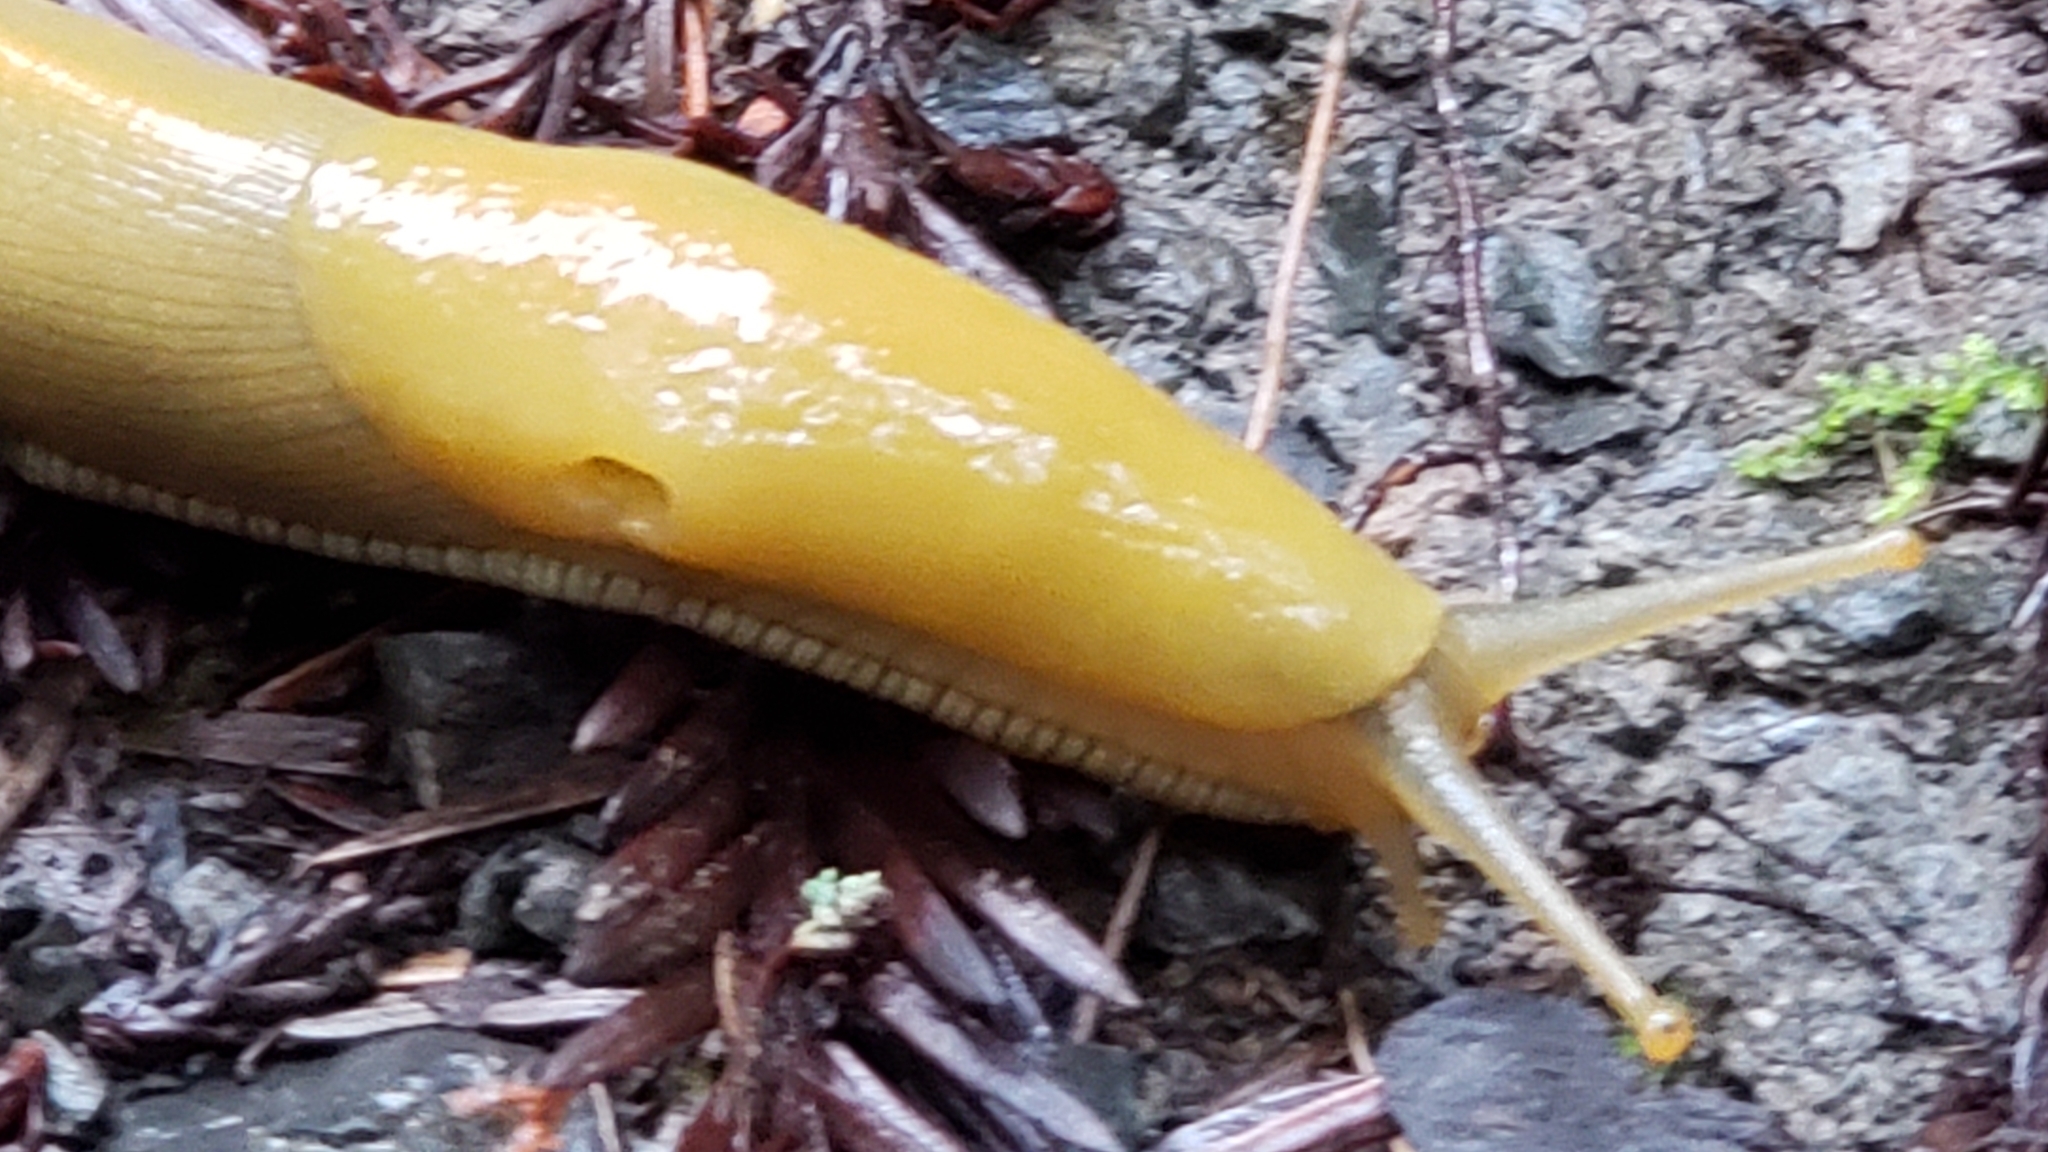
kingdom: Animalia
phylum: Mollusca
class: Gastropoda
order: Stylommatophora
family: Ariolimacidae
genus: Ariolimax
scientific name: Ariolimax buttoni
